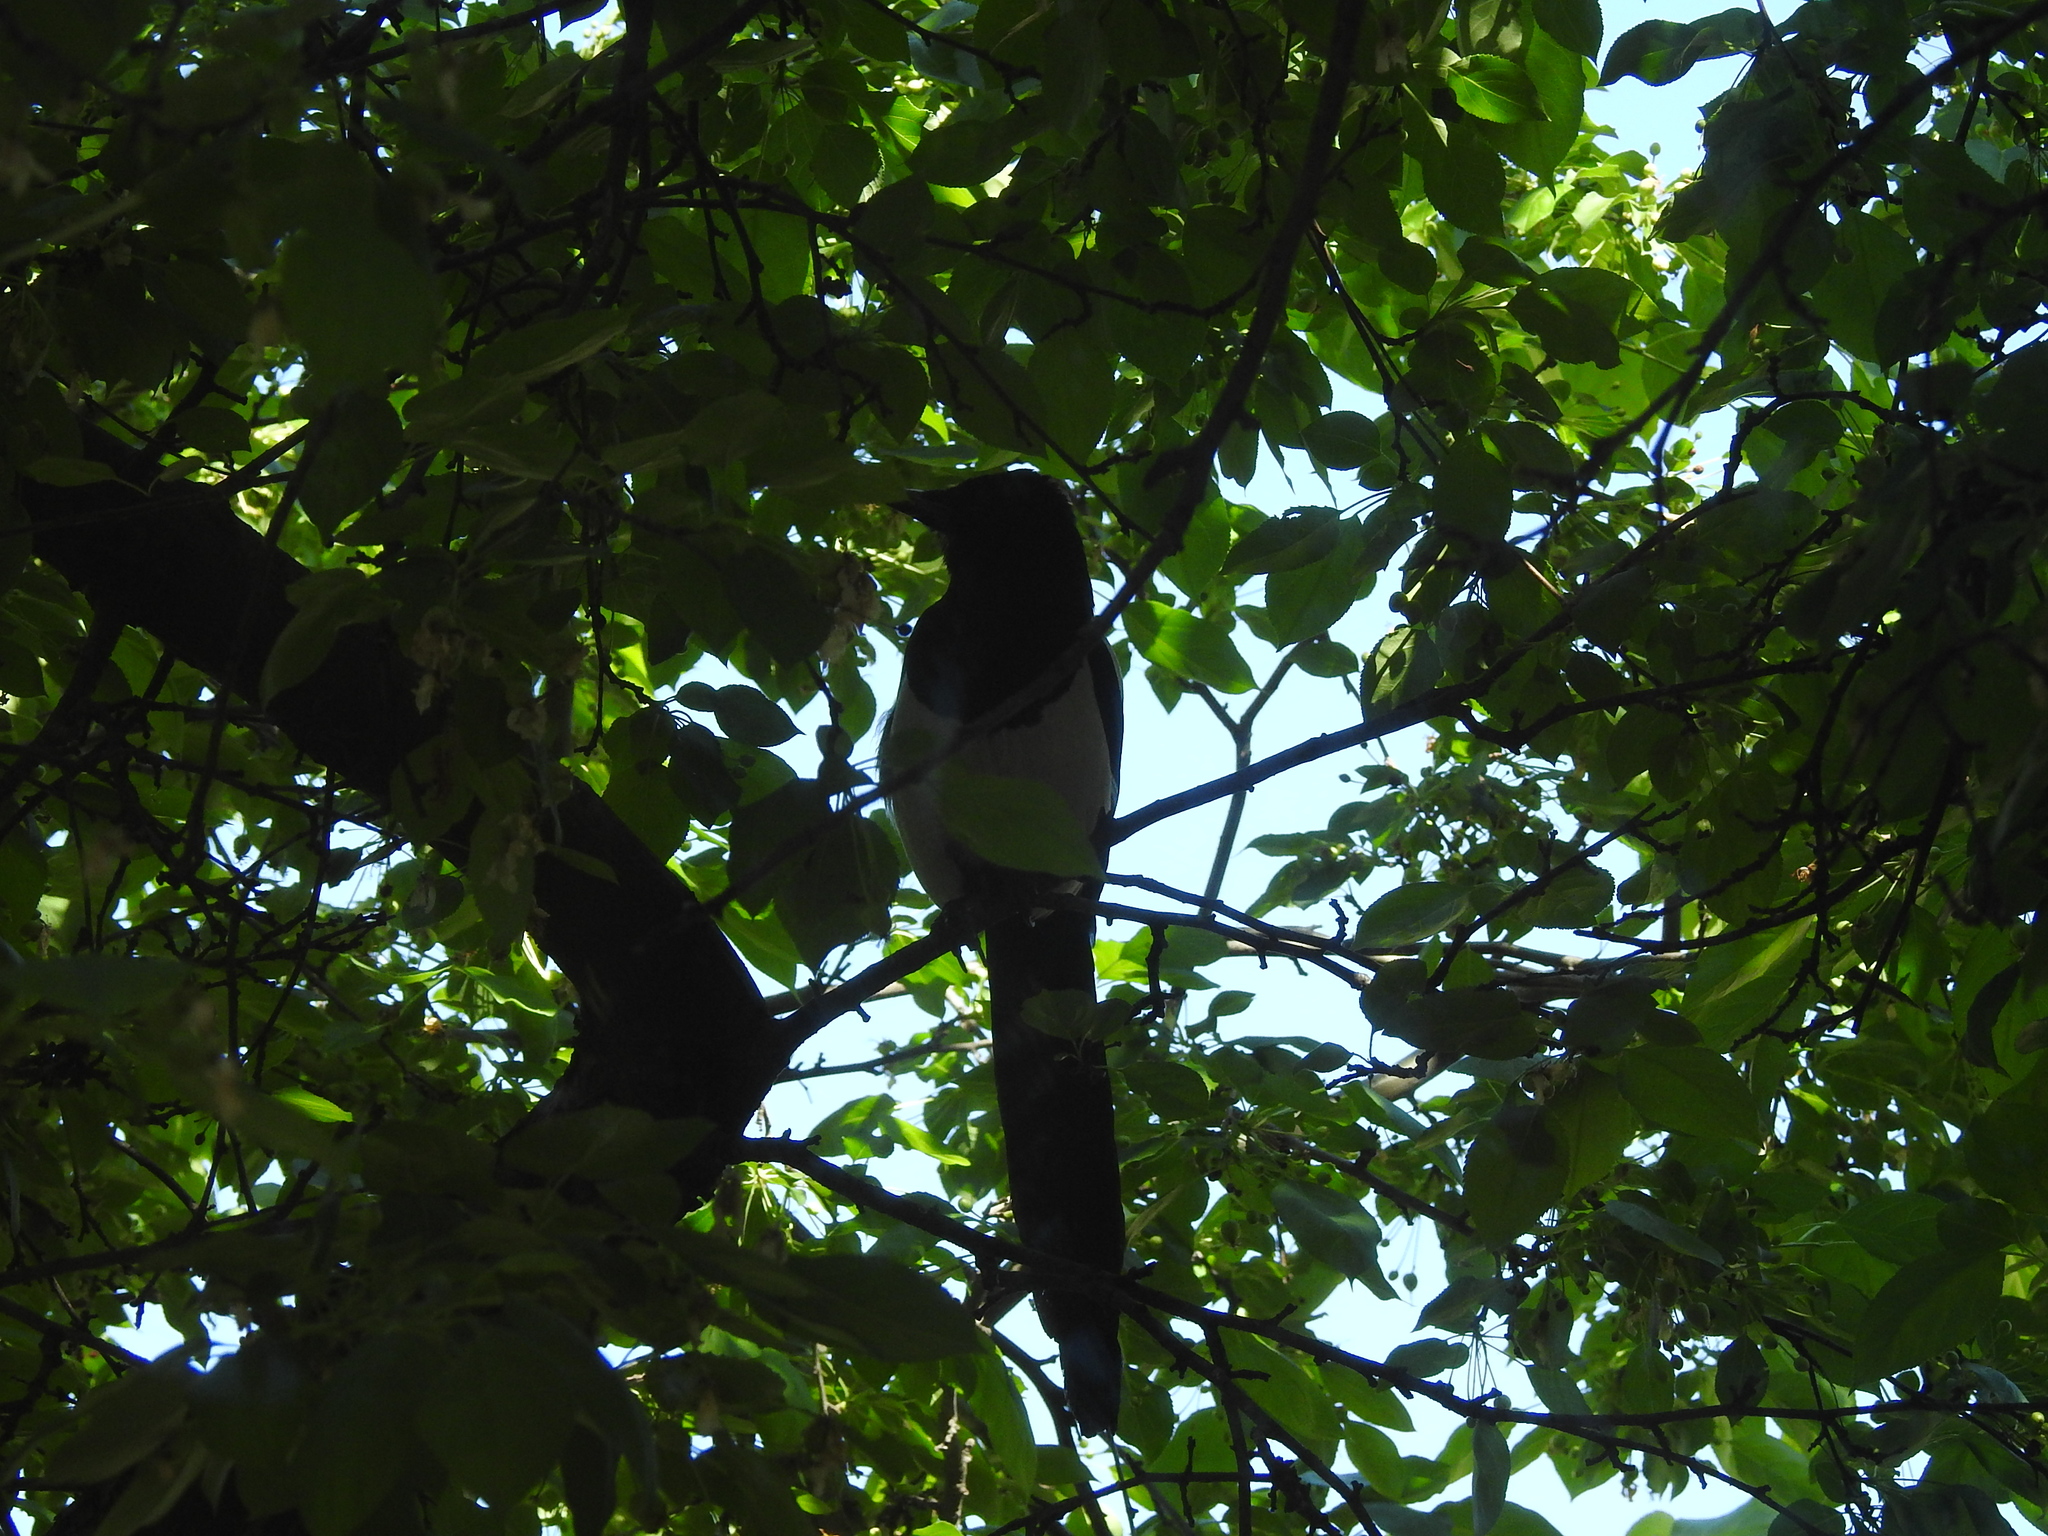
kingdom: Animalia
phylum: Chordata
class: Aves
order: Passeriformes
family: Corvidae
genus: Pica
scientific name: Pica pica
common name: Eurasian magpie
